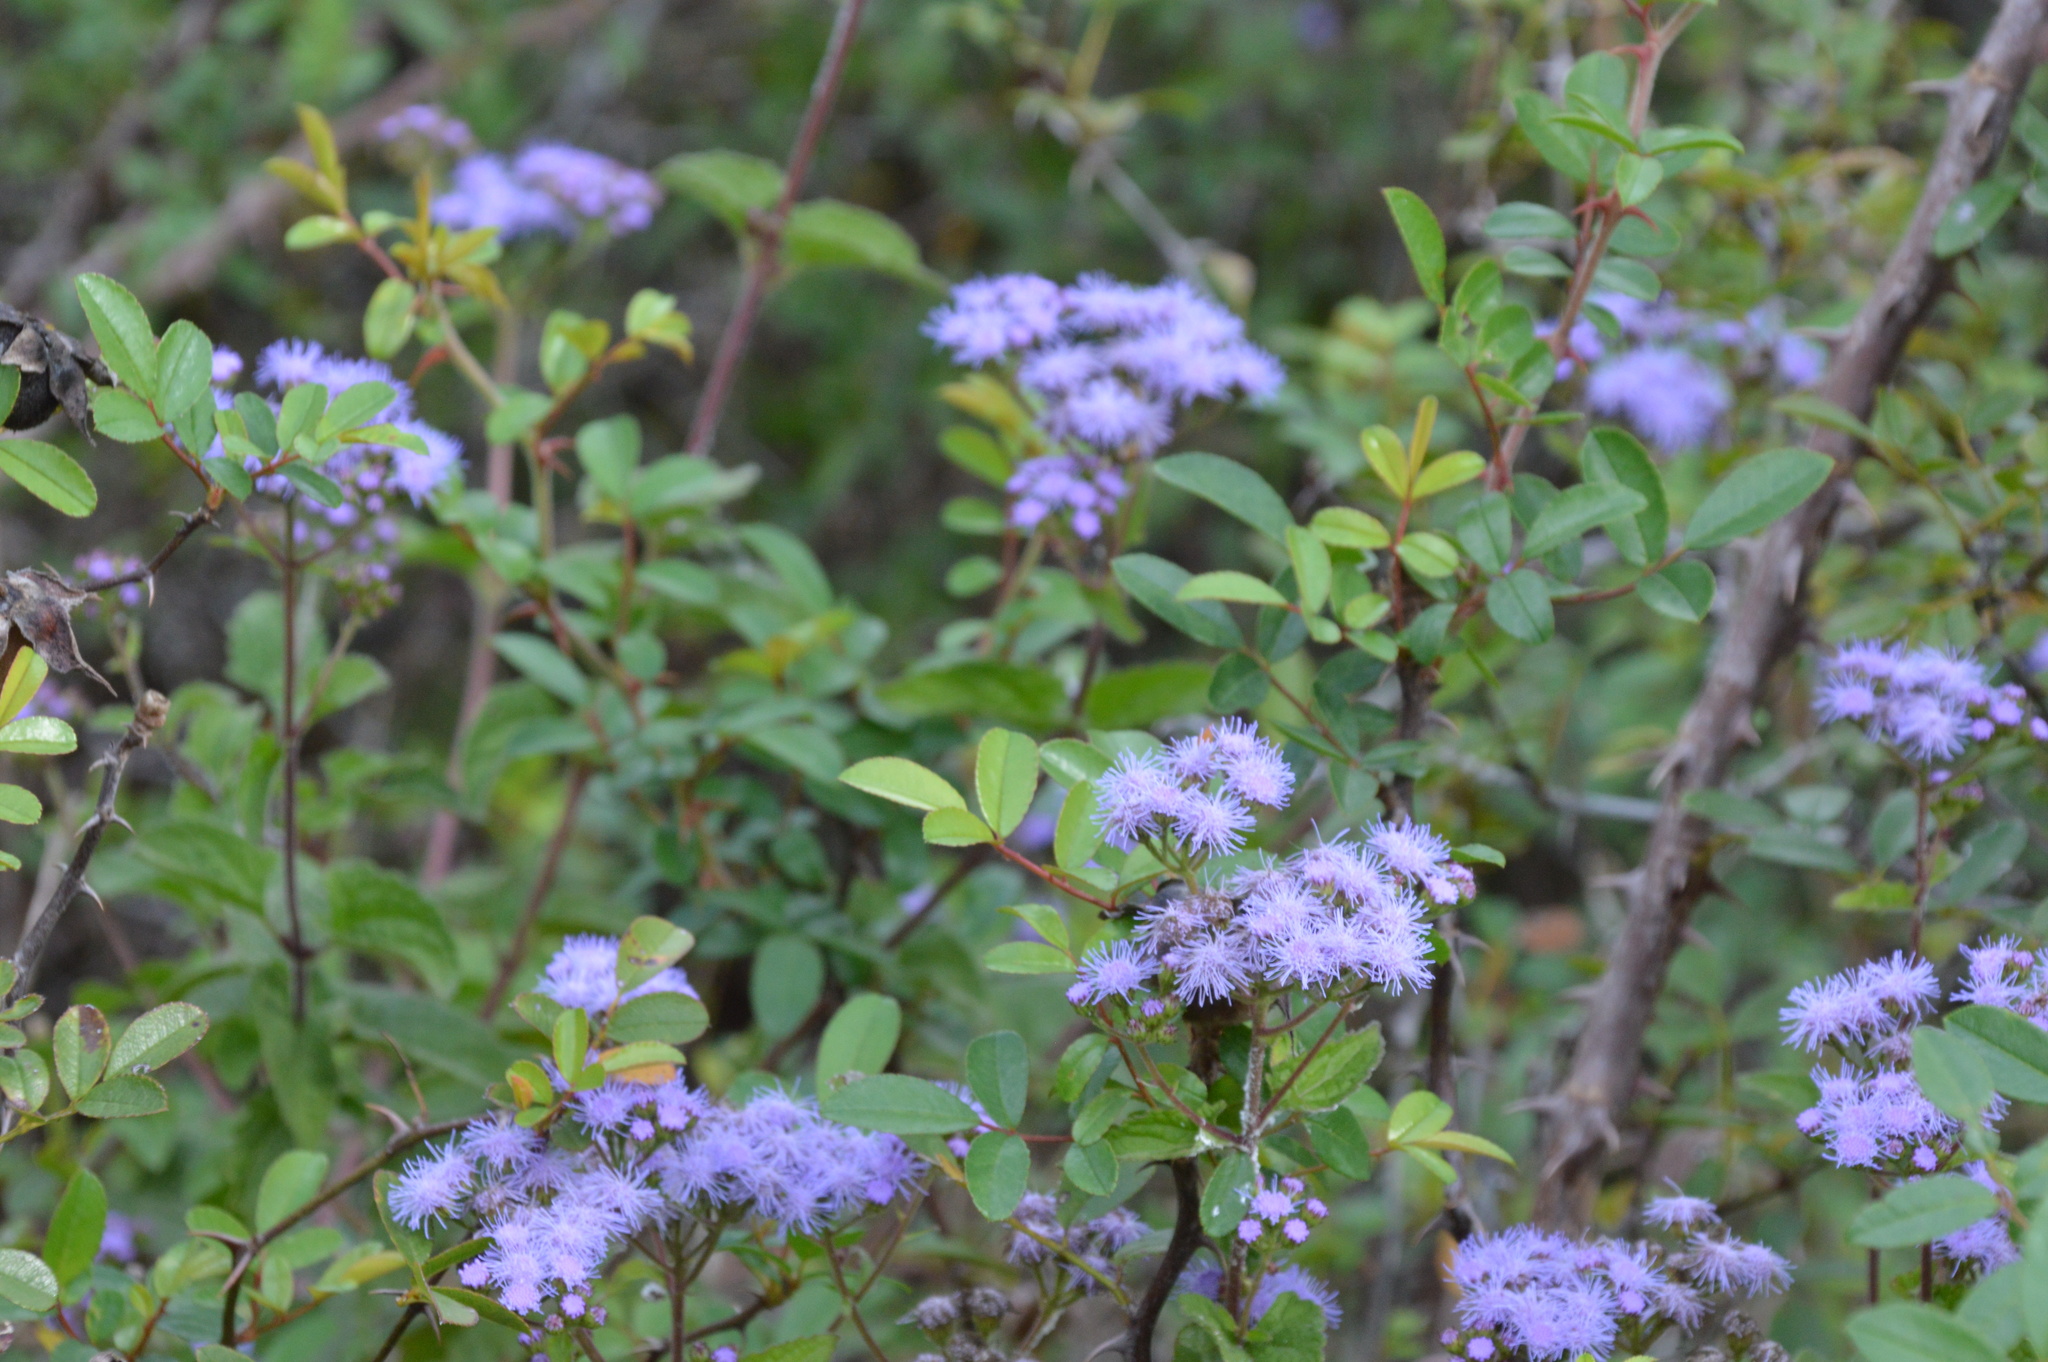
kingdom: Plantae
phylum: Tracheophyta
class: Magnoliopsida
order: Asterales
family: Asteraceae
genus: Conoclinium
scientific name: Conoclinium coelestinum
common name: Blue mistflower
